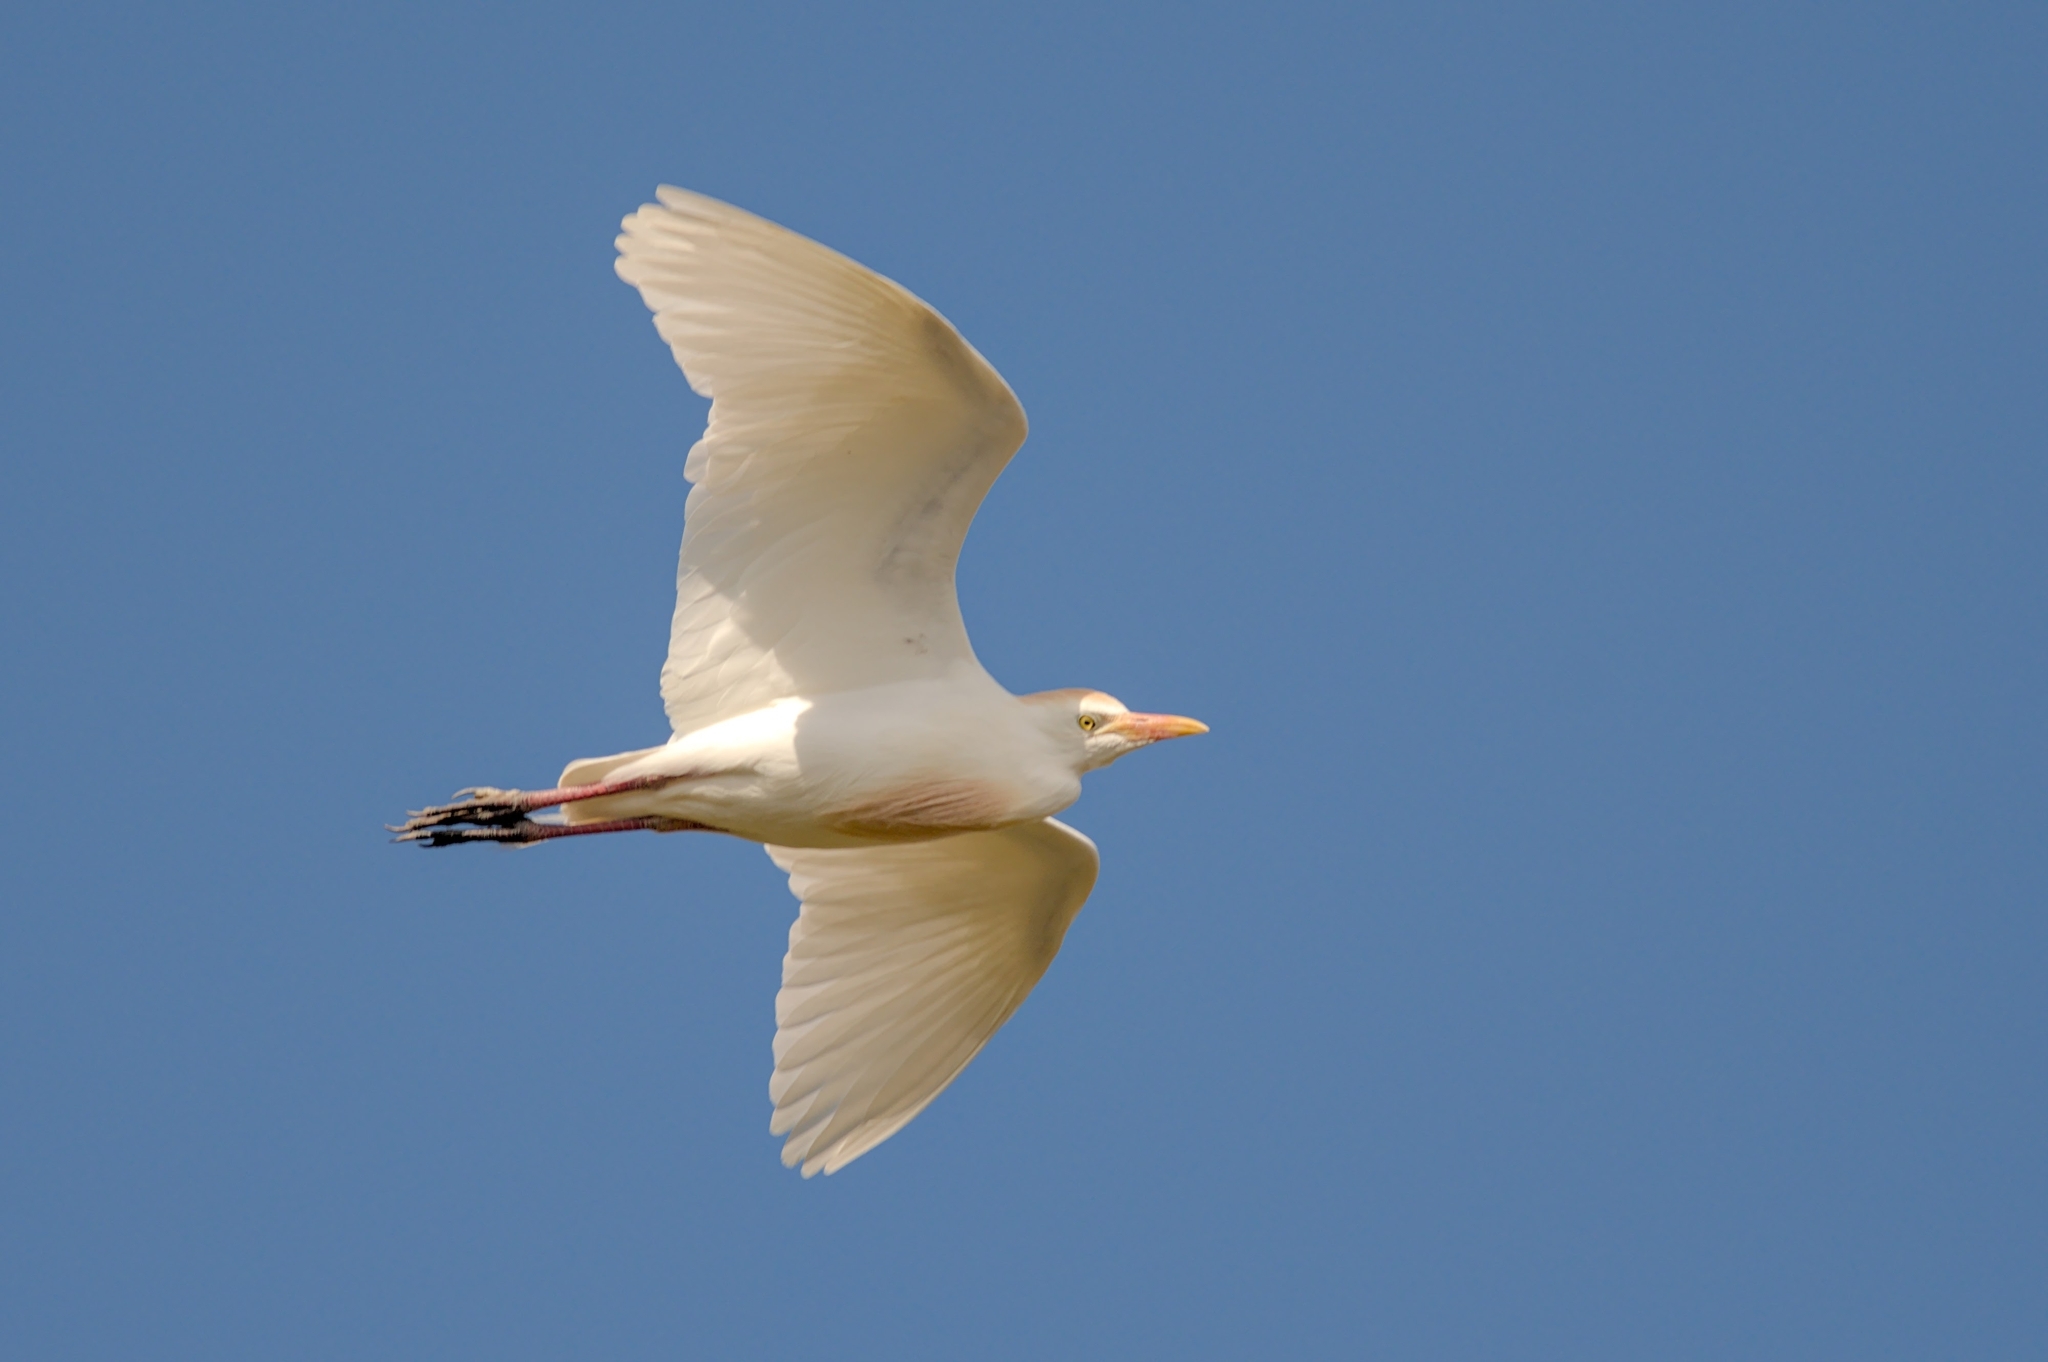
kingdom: Animalia
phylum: Chordata
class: Aves
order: Pelecaniformes
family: Ardeidae
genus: Bubulcus
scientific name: Bubulcus ibis
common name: Cattle egret
